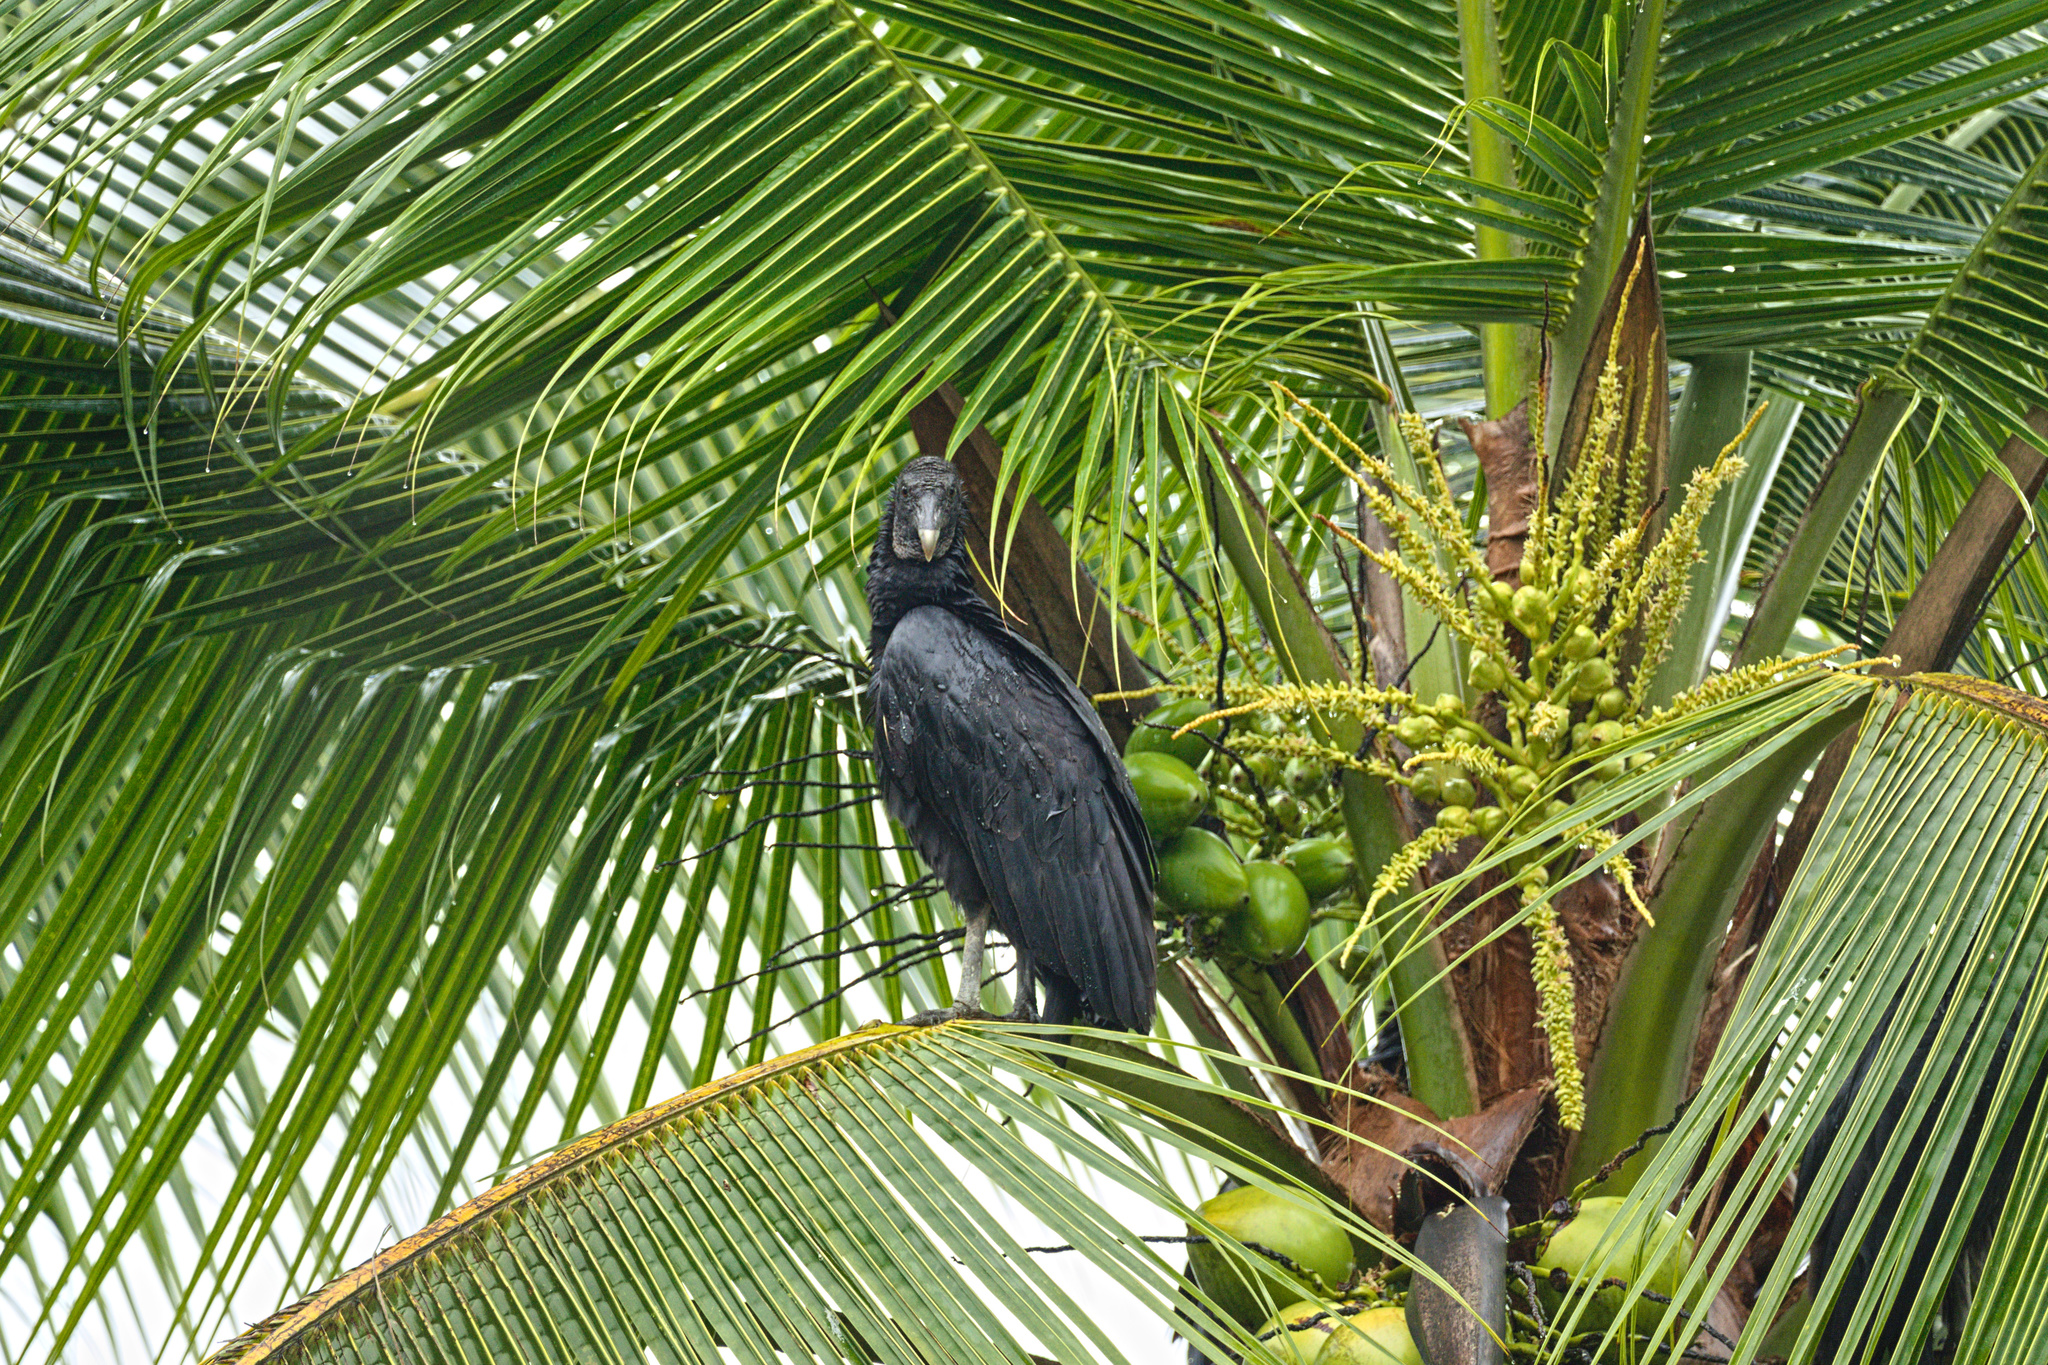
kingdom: Animalia
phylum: Chordata
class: Aves
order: Accipitriformes
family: Cathartidae
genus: Coragyps
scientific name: Coragyps atratus
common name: Black vulture
